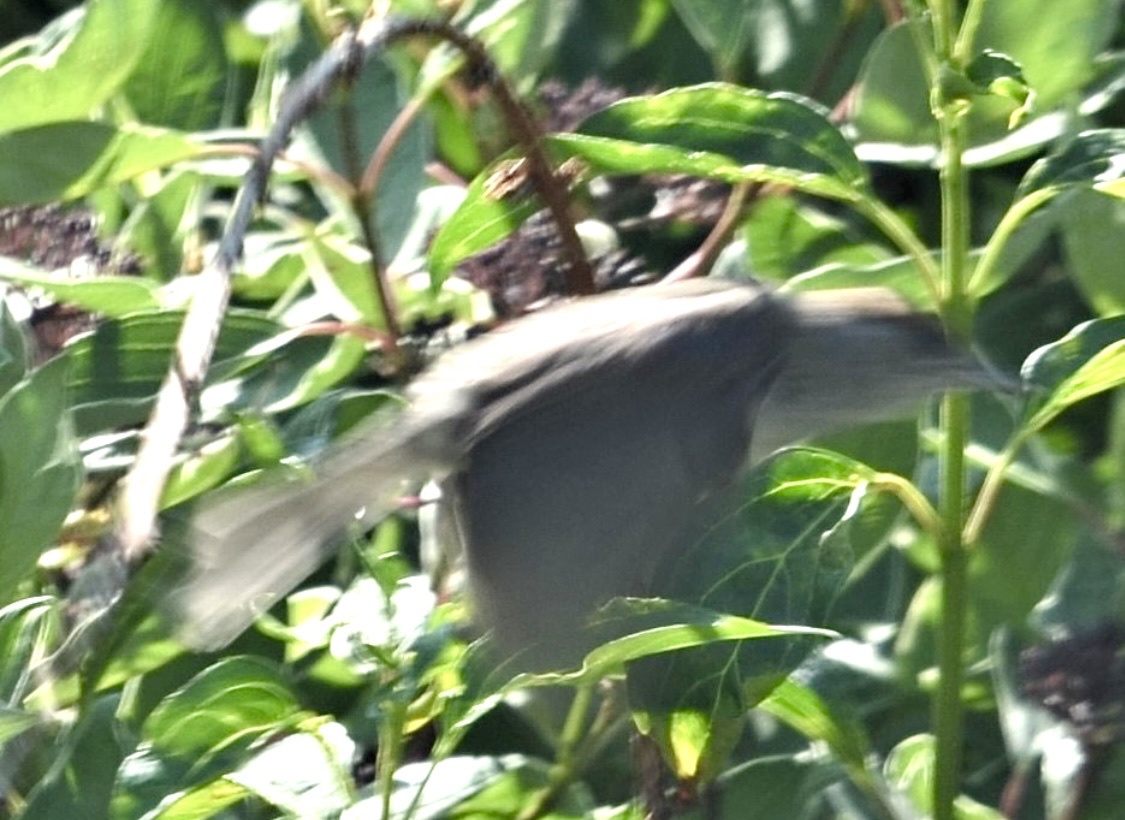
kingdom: Animalia
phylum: Chordata
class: Aves
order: Passeriformes
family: Sylviidae
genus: Sylvia
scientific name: Sylvia atricapilla
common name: Eurasian blackcap
